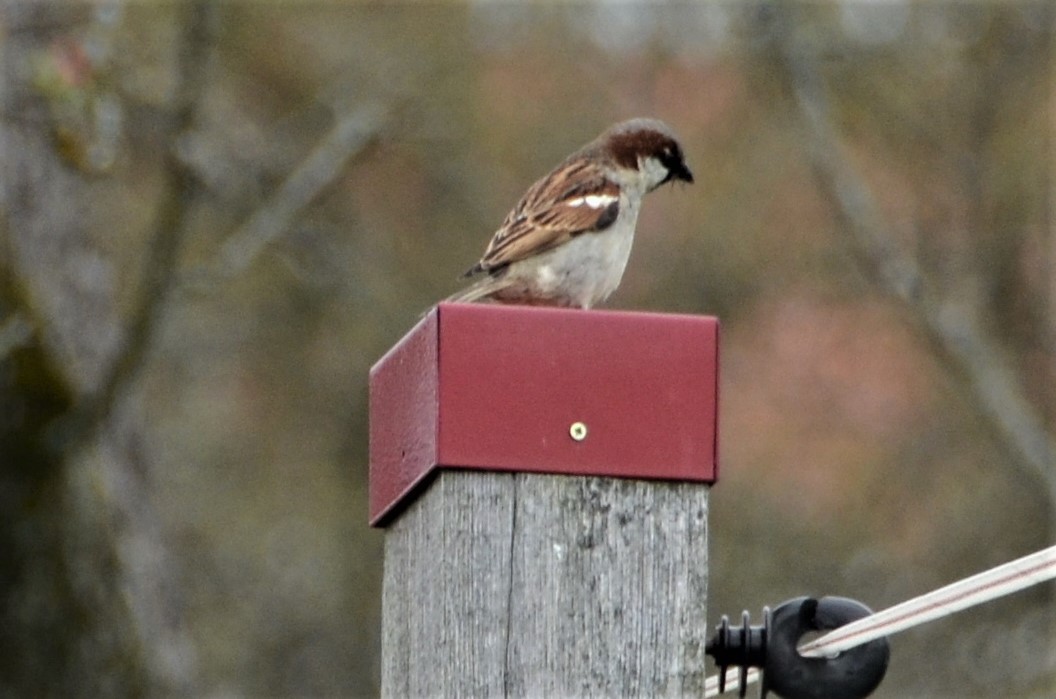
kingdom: Animalia
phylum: Chordata
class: Aves
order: Passeriformes
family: Passeridae
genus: Passer
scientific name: Passer domesticus
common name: House sparrow
